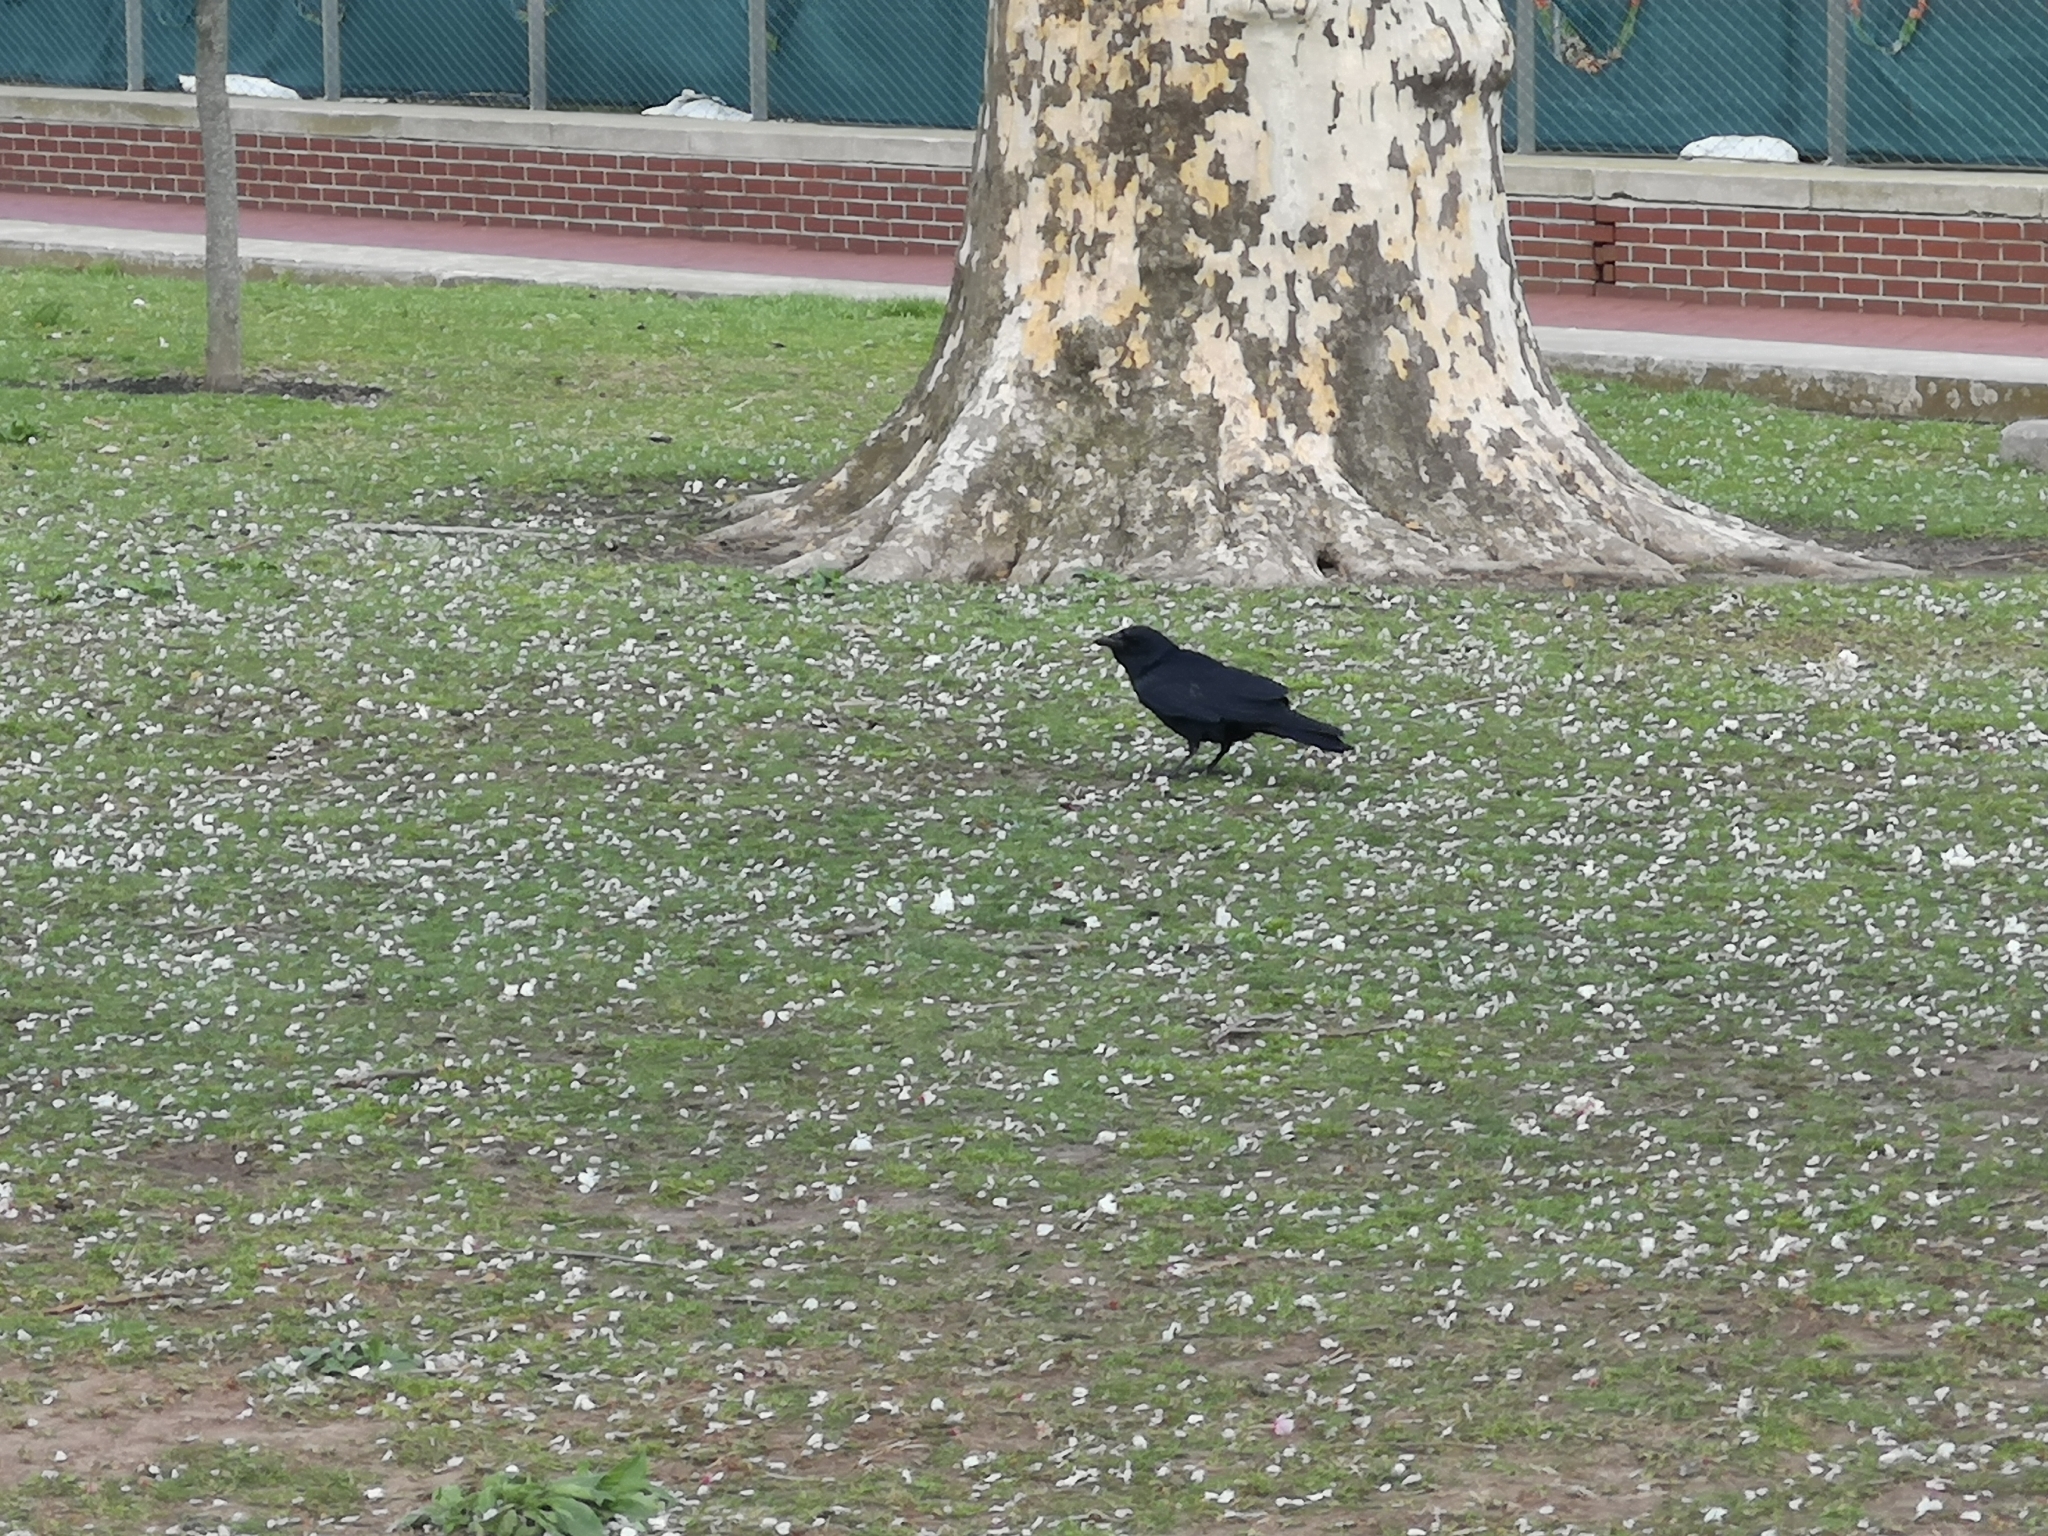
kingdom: Animalia
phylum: Chordata
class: Aves
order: Passeriformes
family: Corvidae
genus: Corvus
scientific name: Corvus brachyrhynchos
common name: American crow
